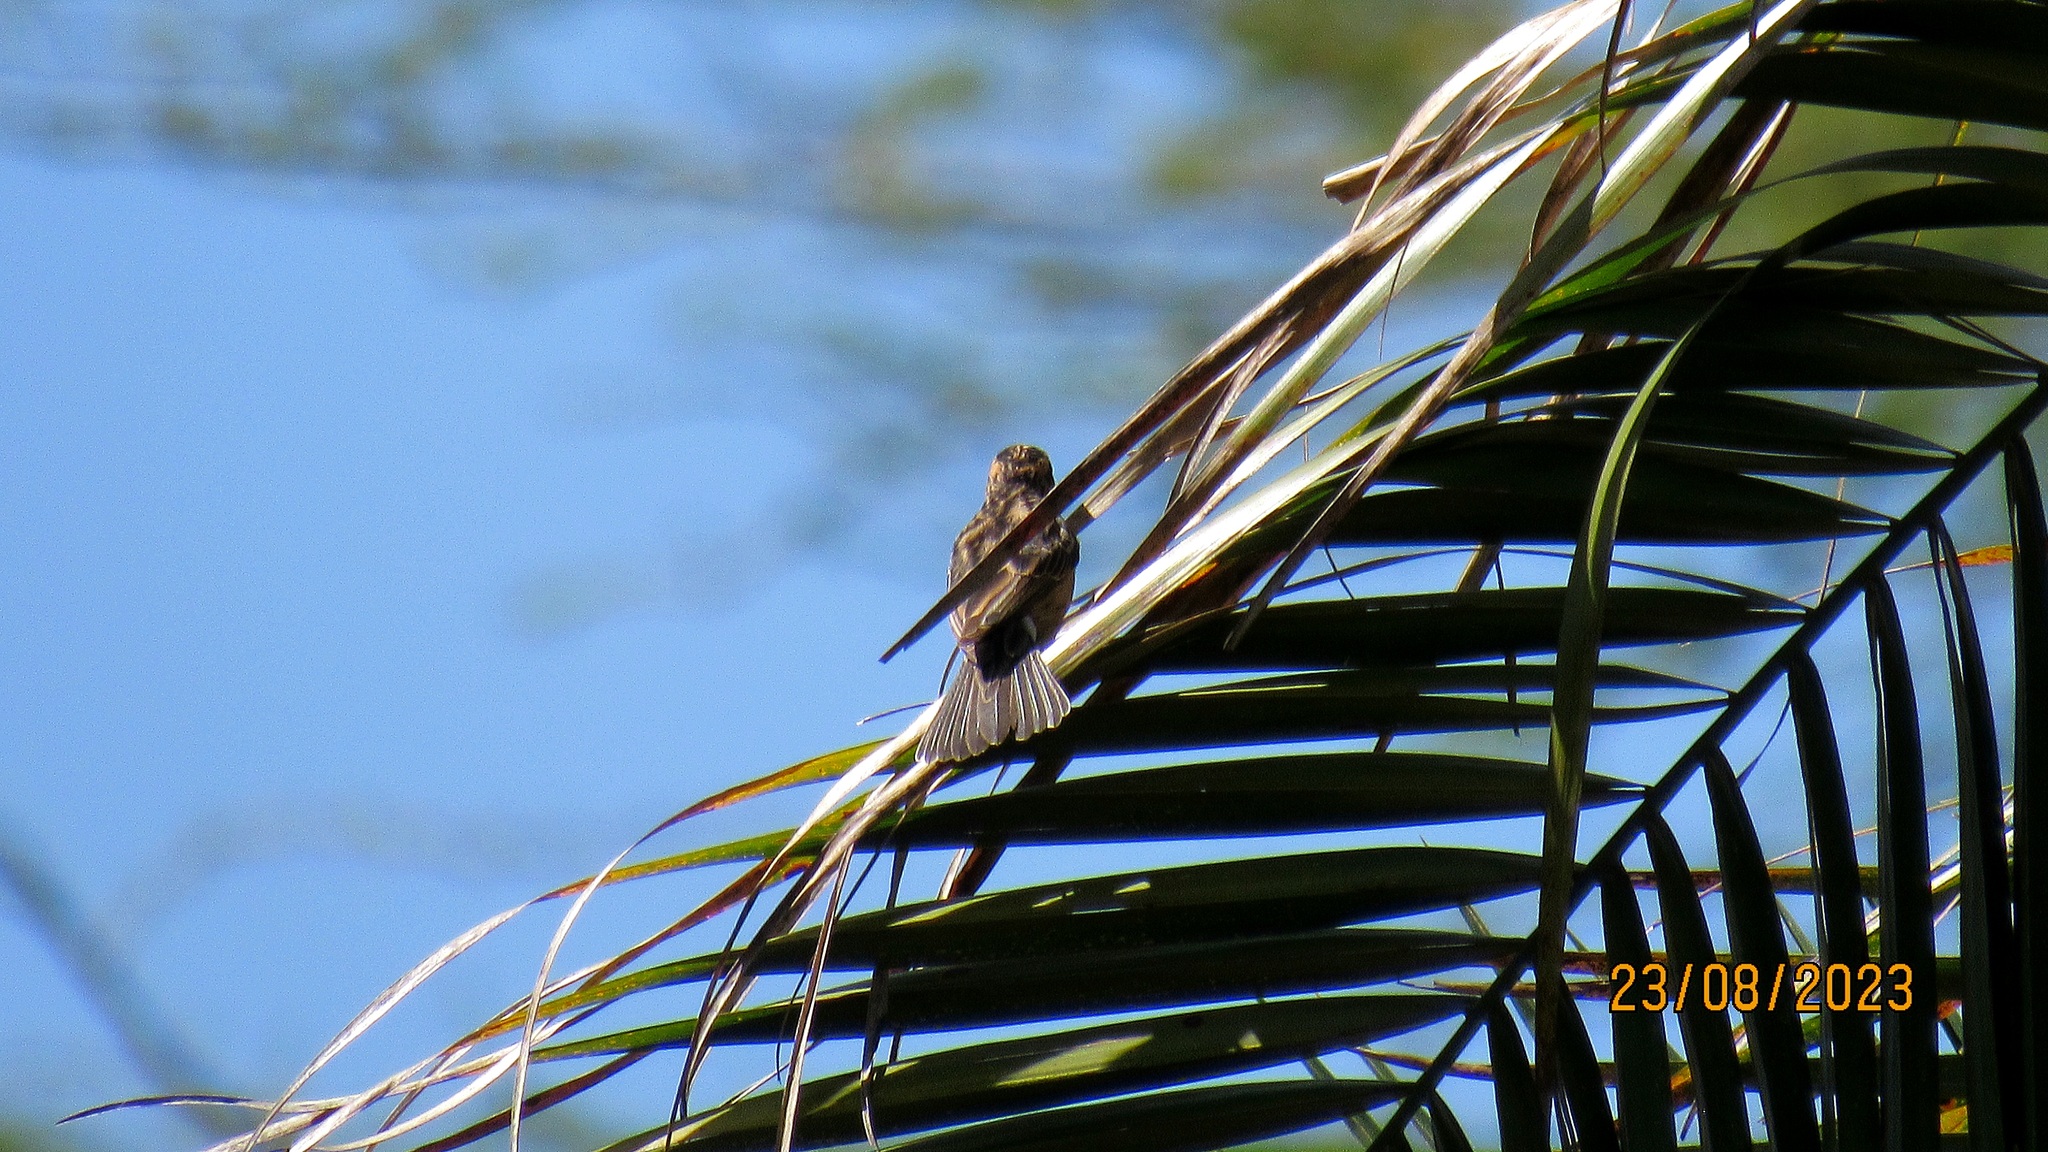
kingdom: Animalia
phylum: Chordata
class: Aves
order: Passeriformes
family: Viduidae
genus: Vidua
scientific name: Vidua paradisaea
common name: Long-tailed paradise whydah
